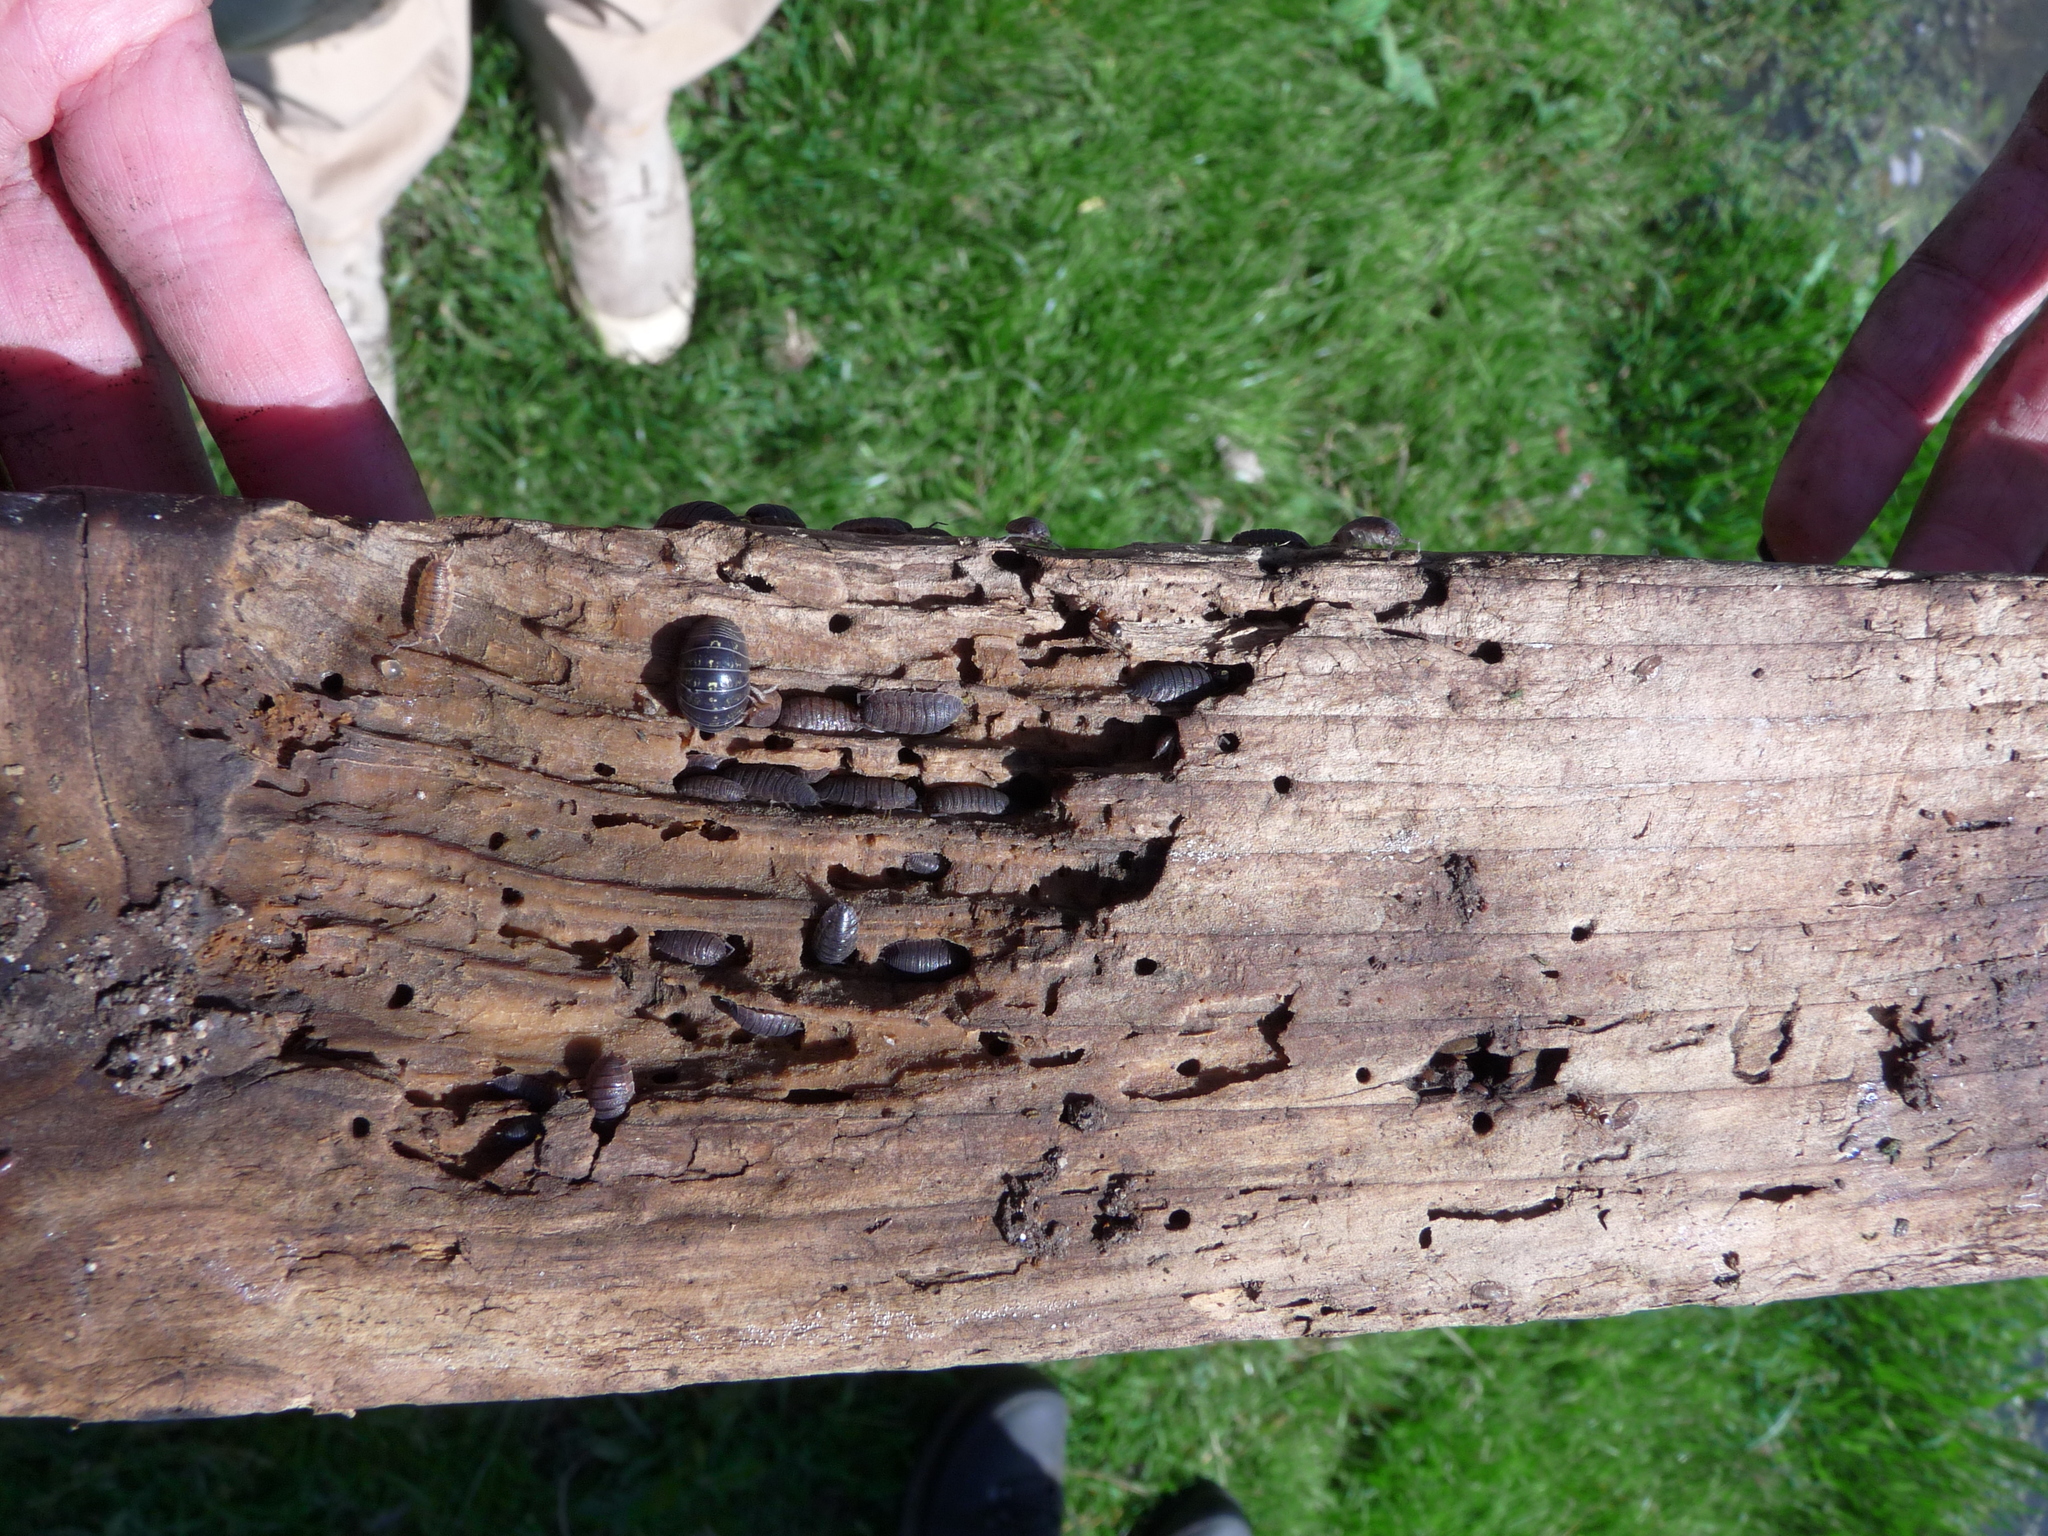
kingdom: Animalia
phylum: Arthropoda
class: Malacostraca
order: Isopoda
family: Porcellionidae
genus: Porcellio
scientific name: Porcellio scaber
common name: Common rough woodlouse
